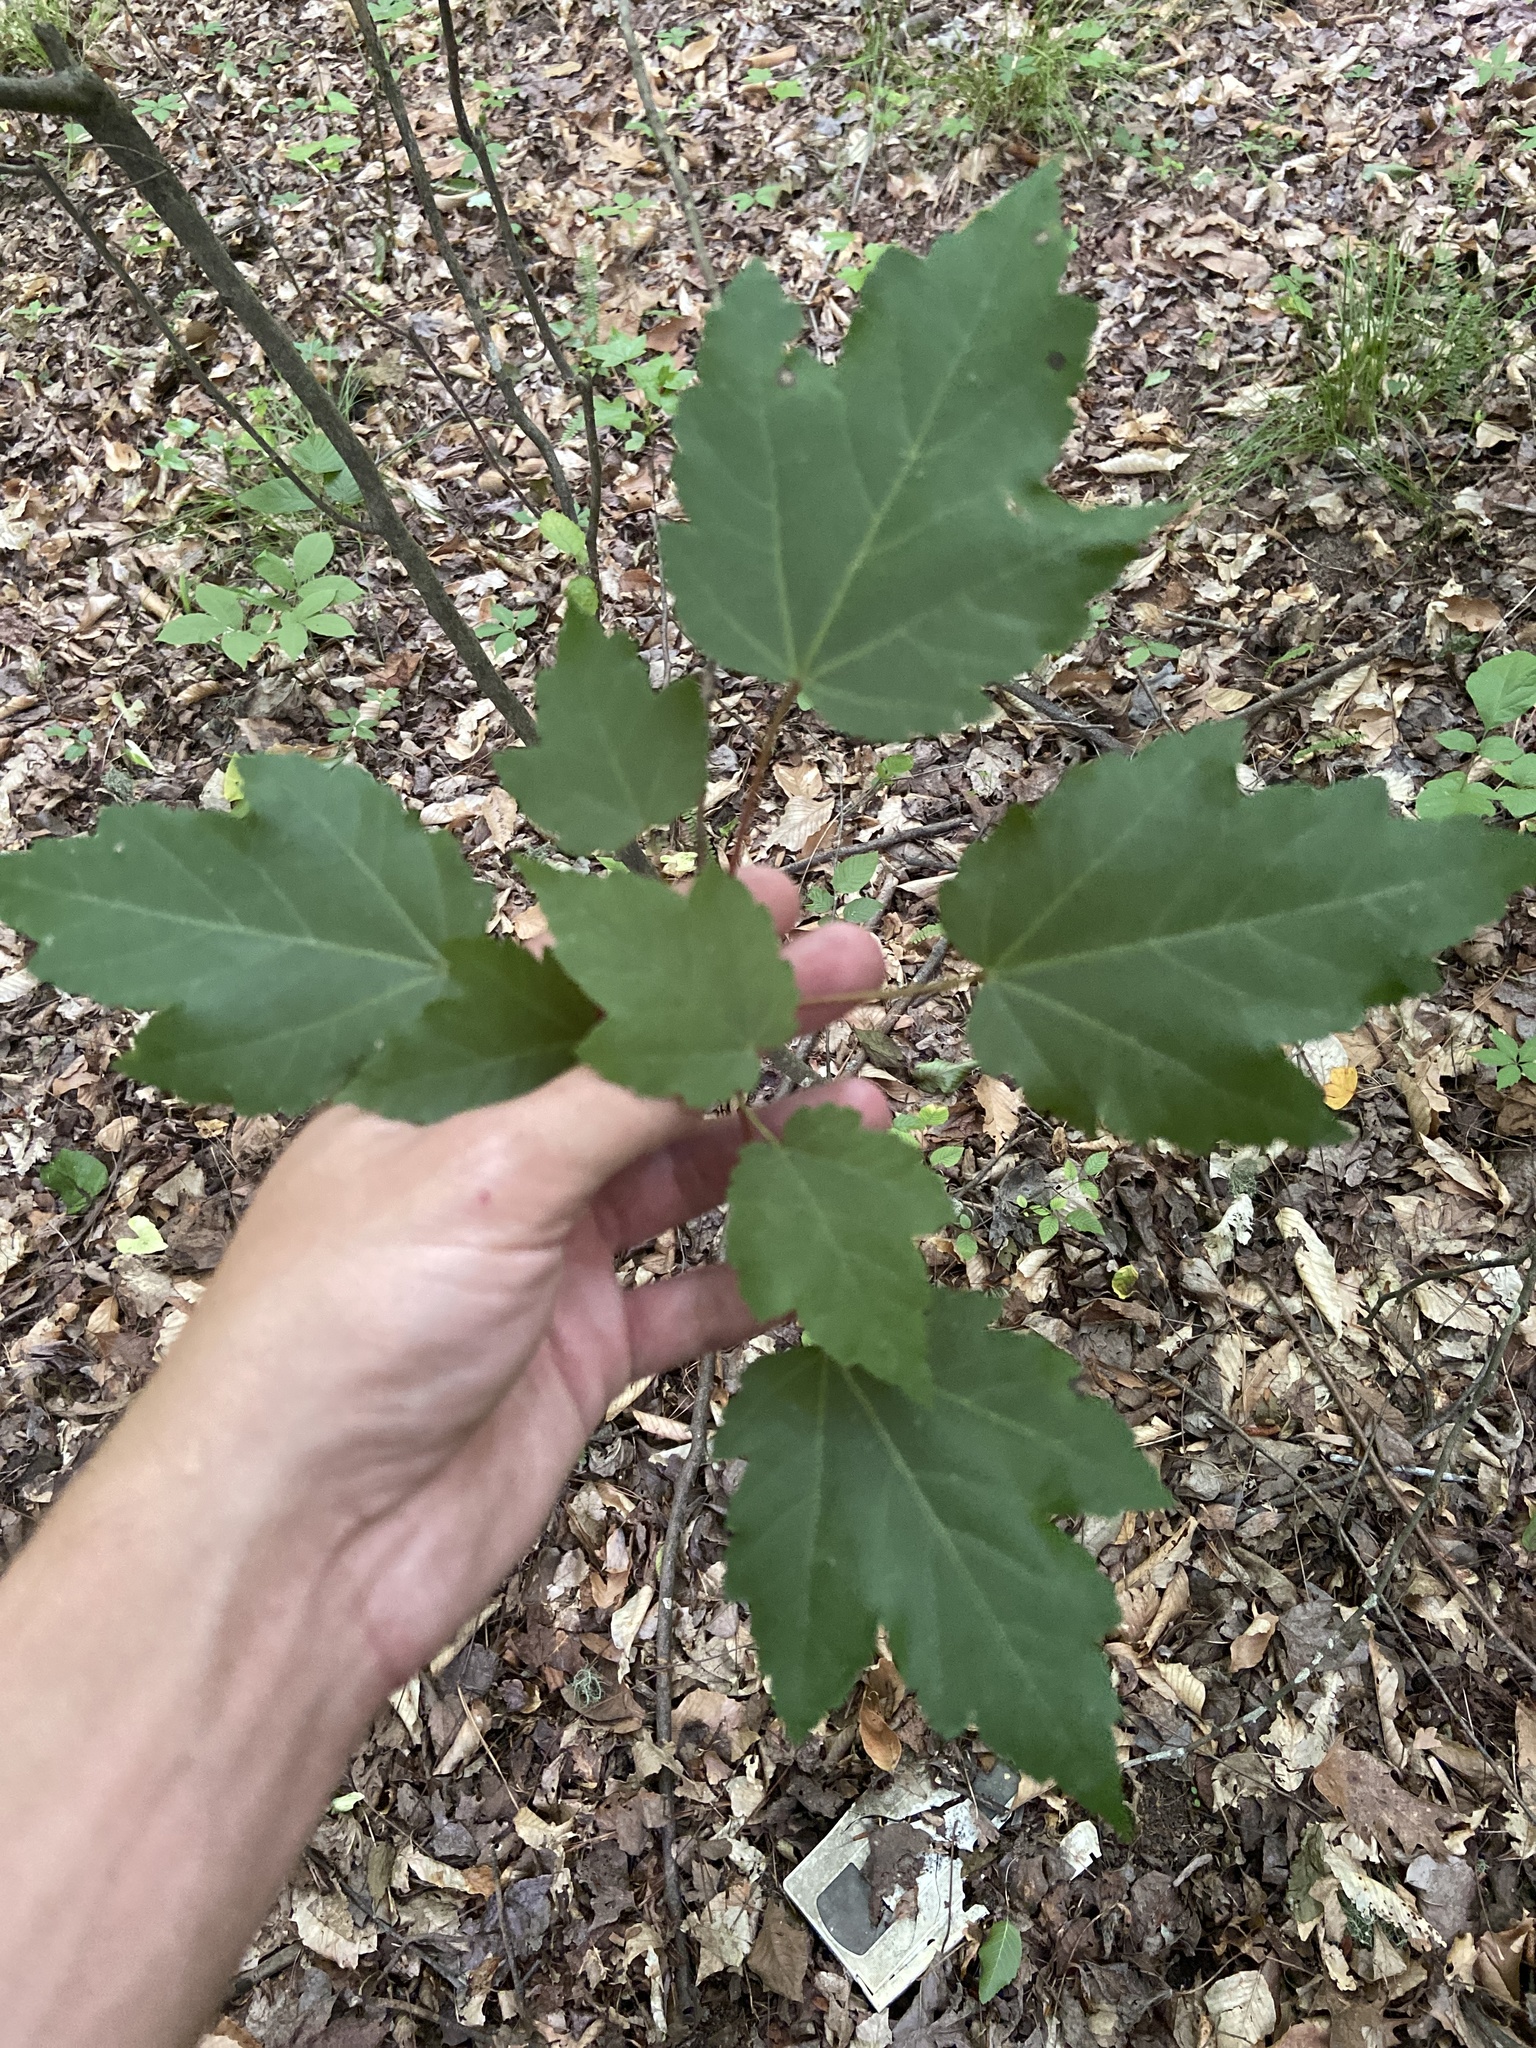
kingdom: Plantae
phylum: Tracheophyta
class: Magnoliopsida
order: Sapindales
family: Sapindaceae
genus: Acer
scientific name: Acer rubrum
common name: Red maple
